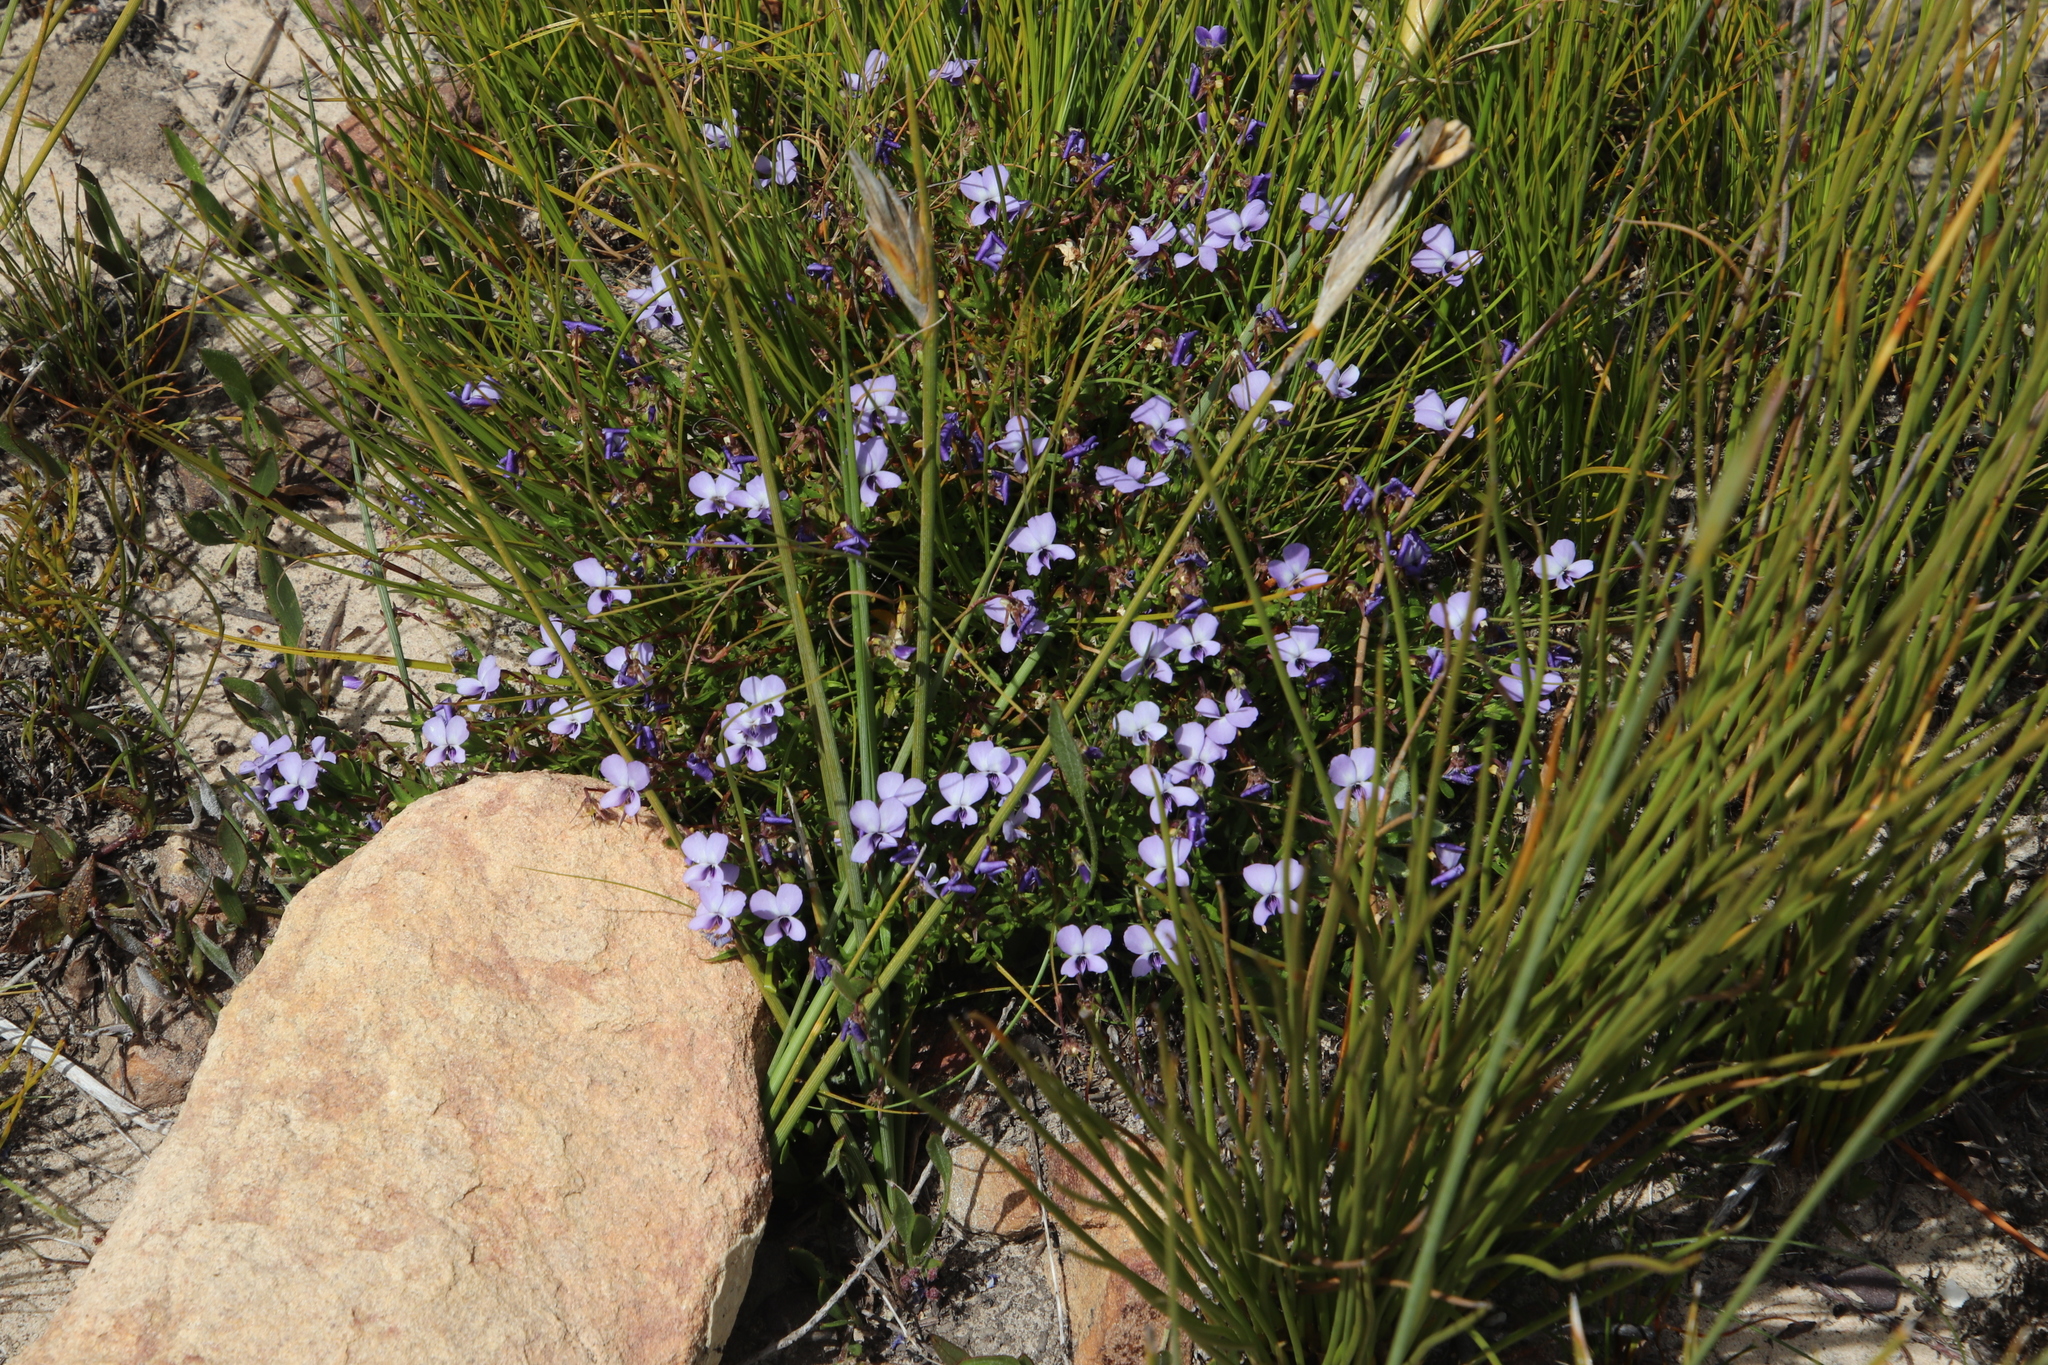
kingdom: Plantae
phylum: Tracheophyta
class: Magnoliopsida
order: Malpighiales
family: Violaceae
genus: Viola
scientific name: Viola decumbens
